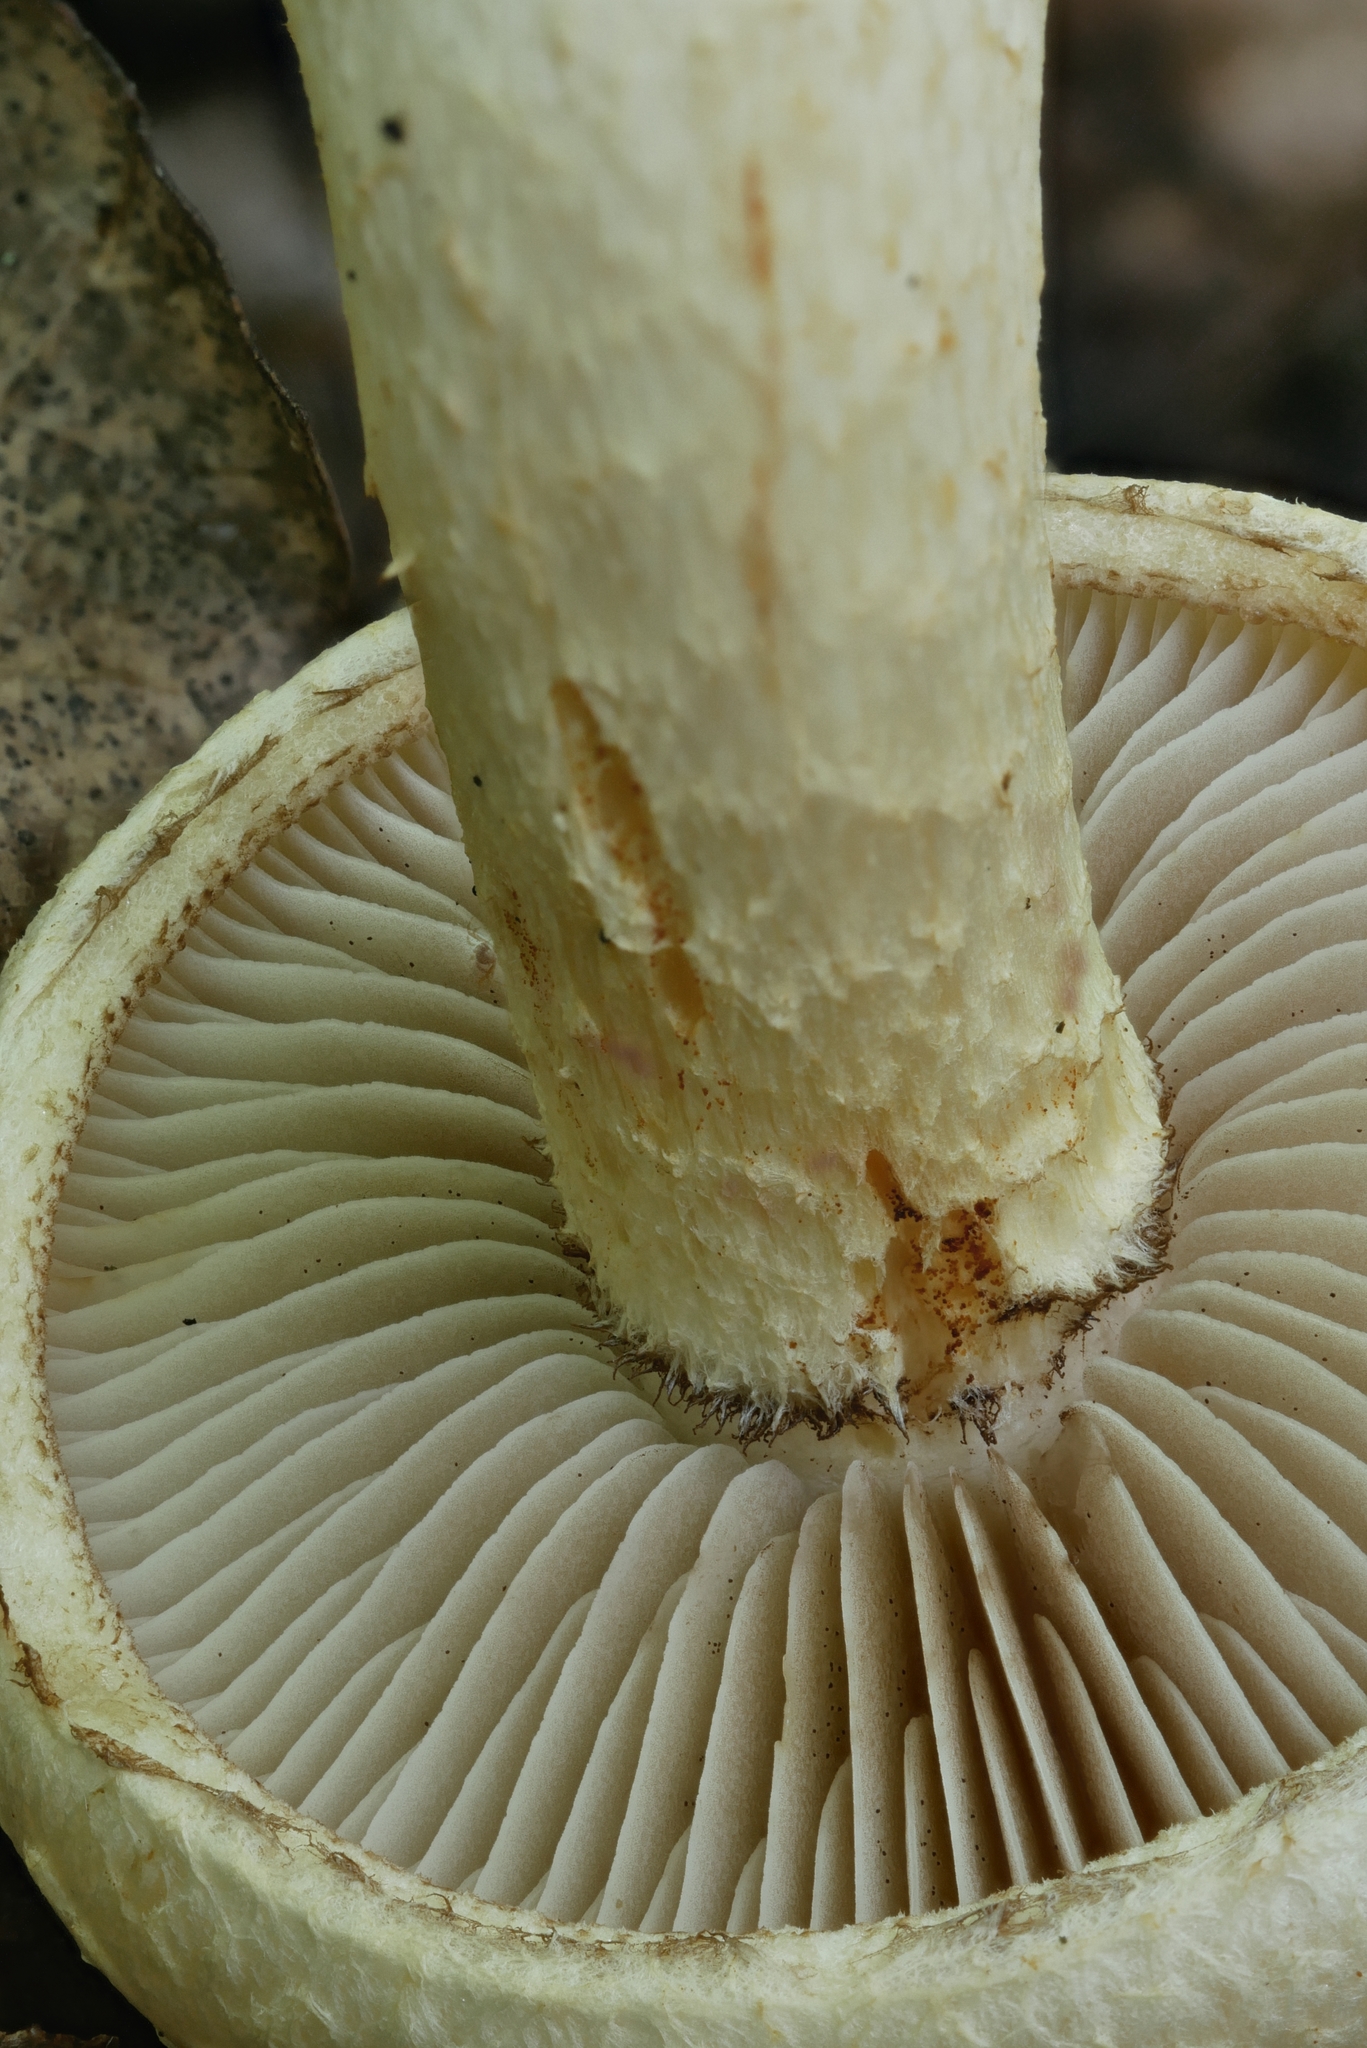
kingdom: Fungi
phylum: Basidiomycota
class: Agaricomycetes
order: Agaricales
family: Strophariaceae
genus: Pholiota
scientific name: Pholiota heteroclita
